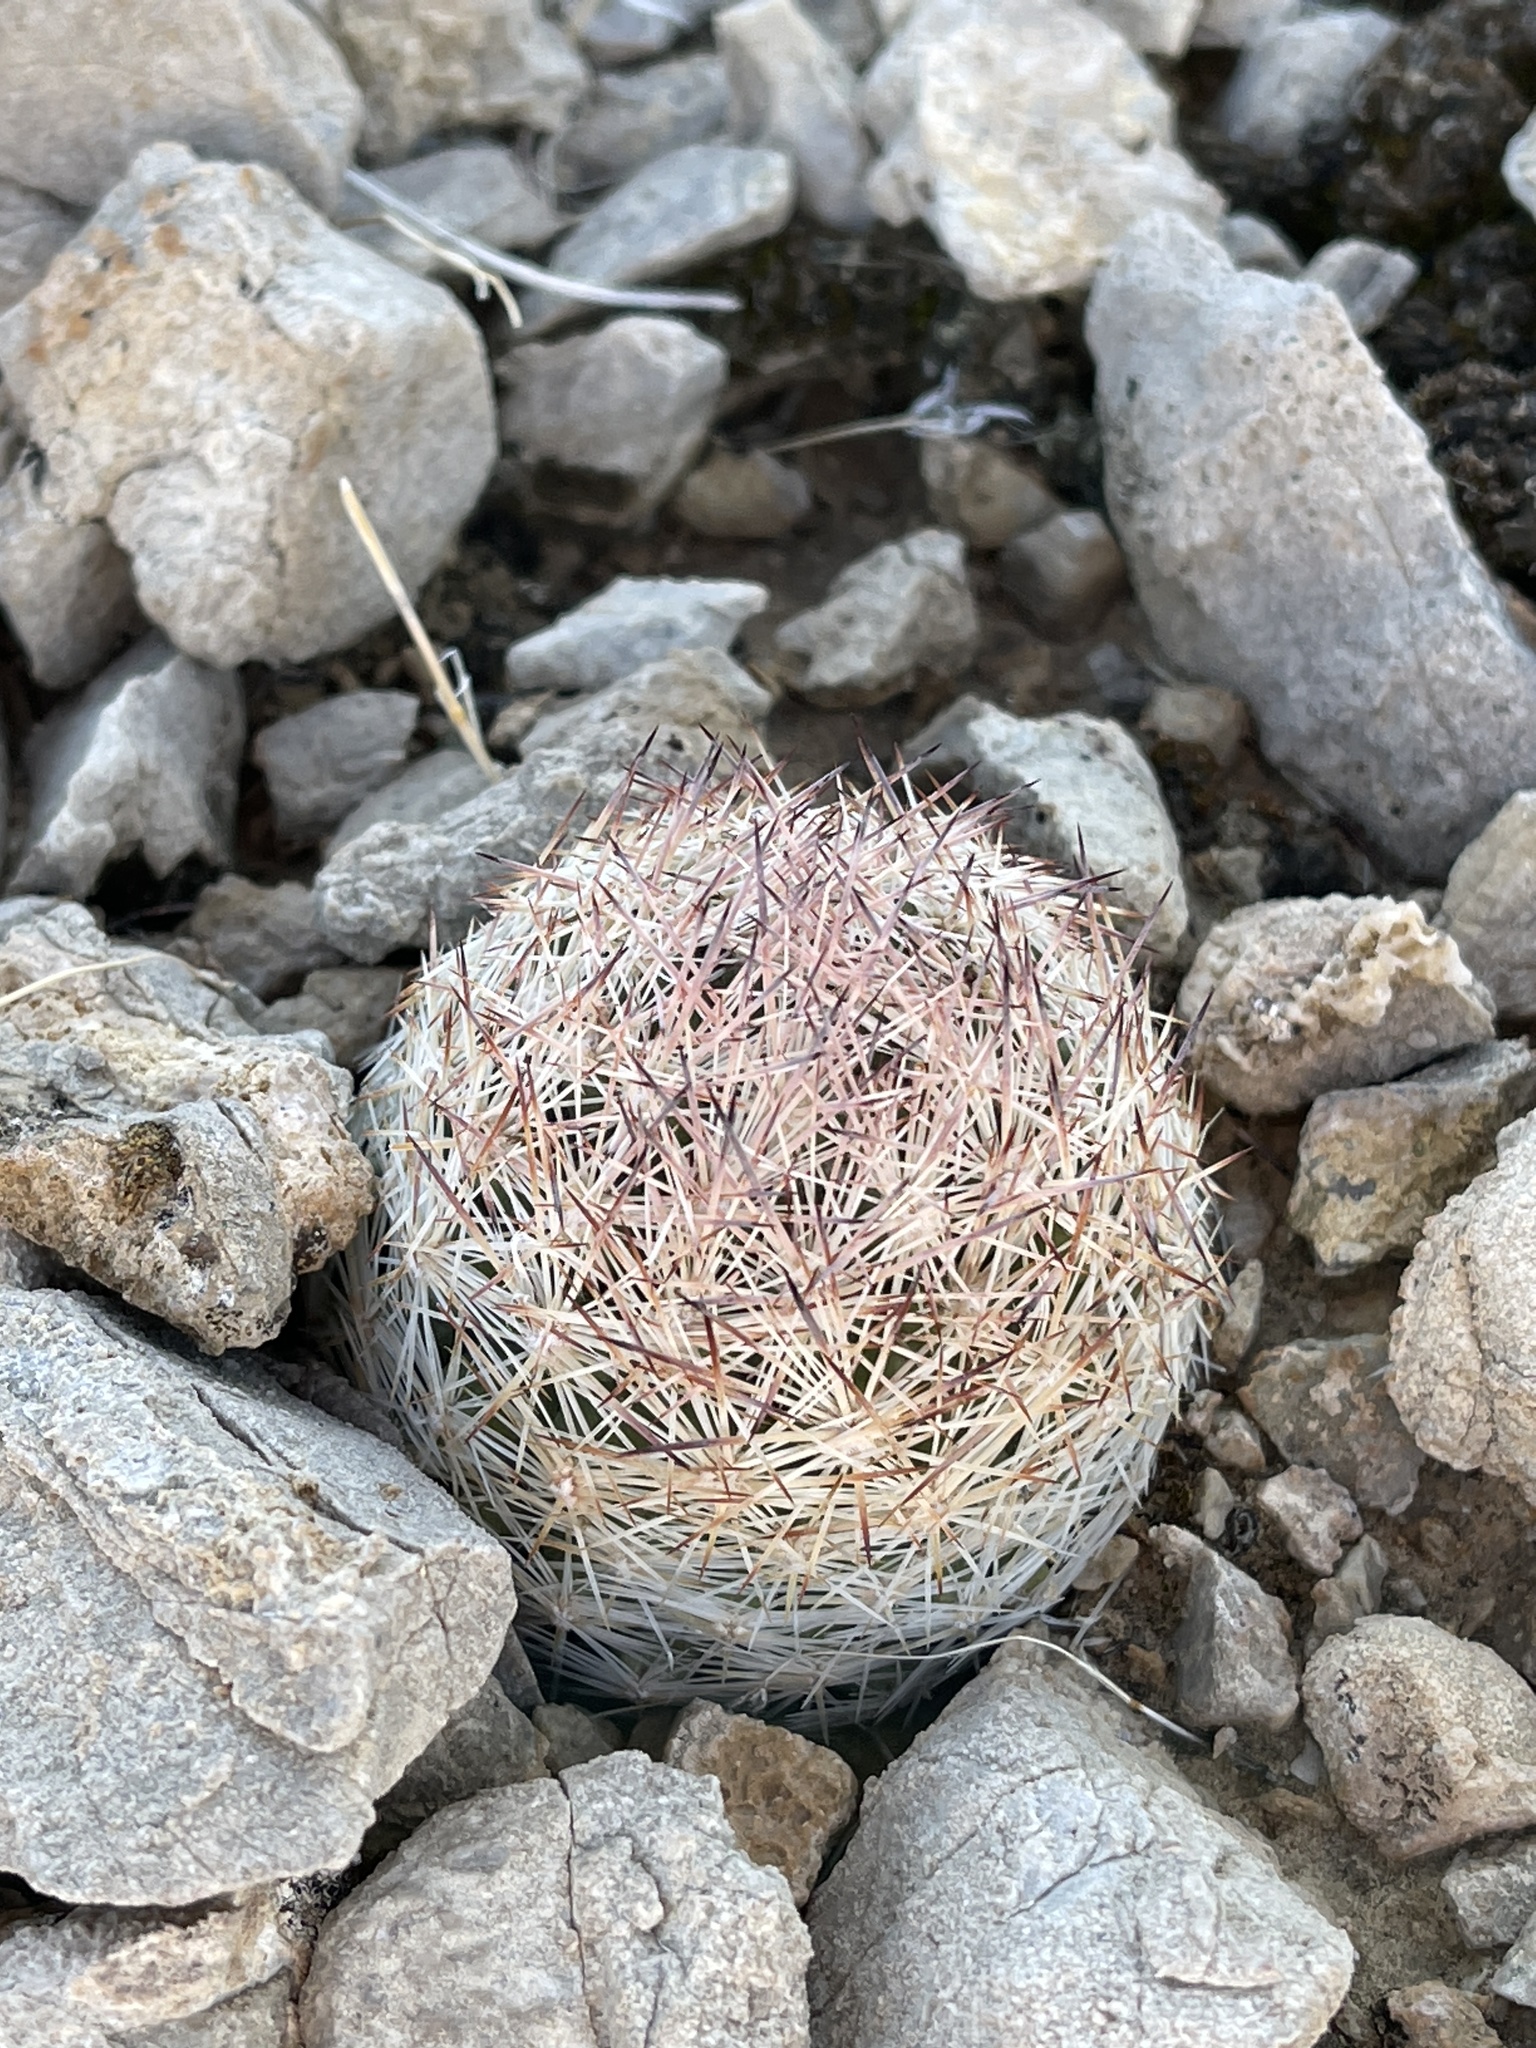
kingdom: Plantae
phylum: Tracheophyta
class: Magnoliopsida
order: Caryophyllales
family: Cactaceae
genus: Pelecyphora
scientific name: Pelecyphora dasyacantha
